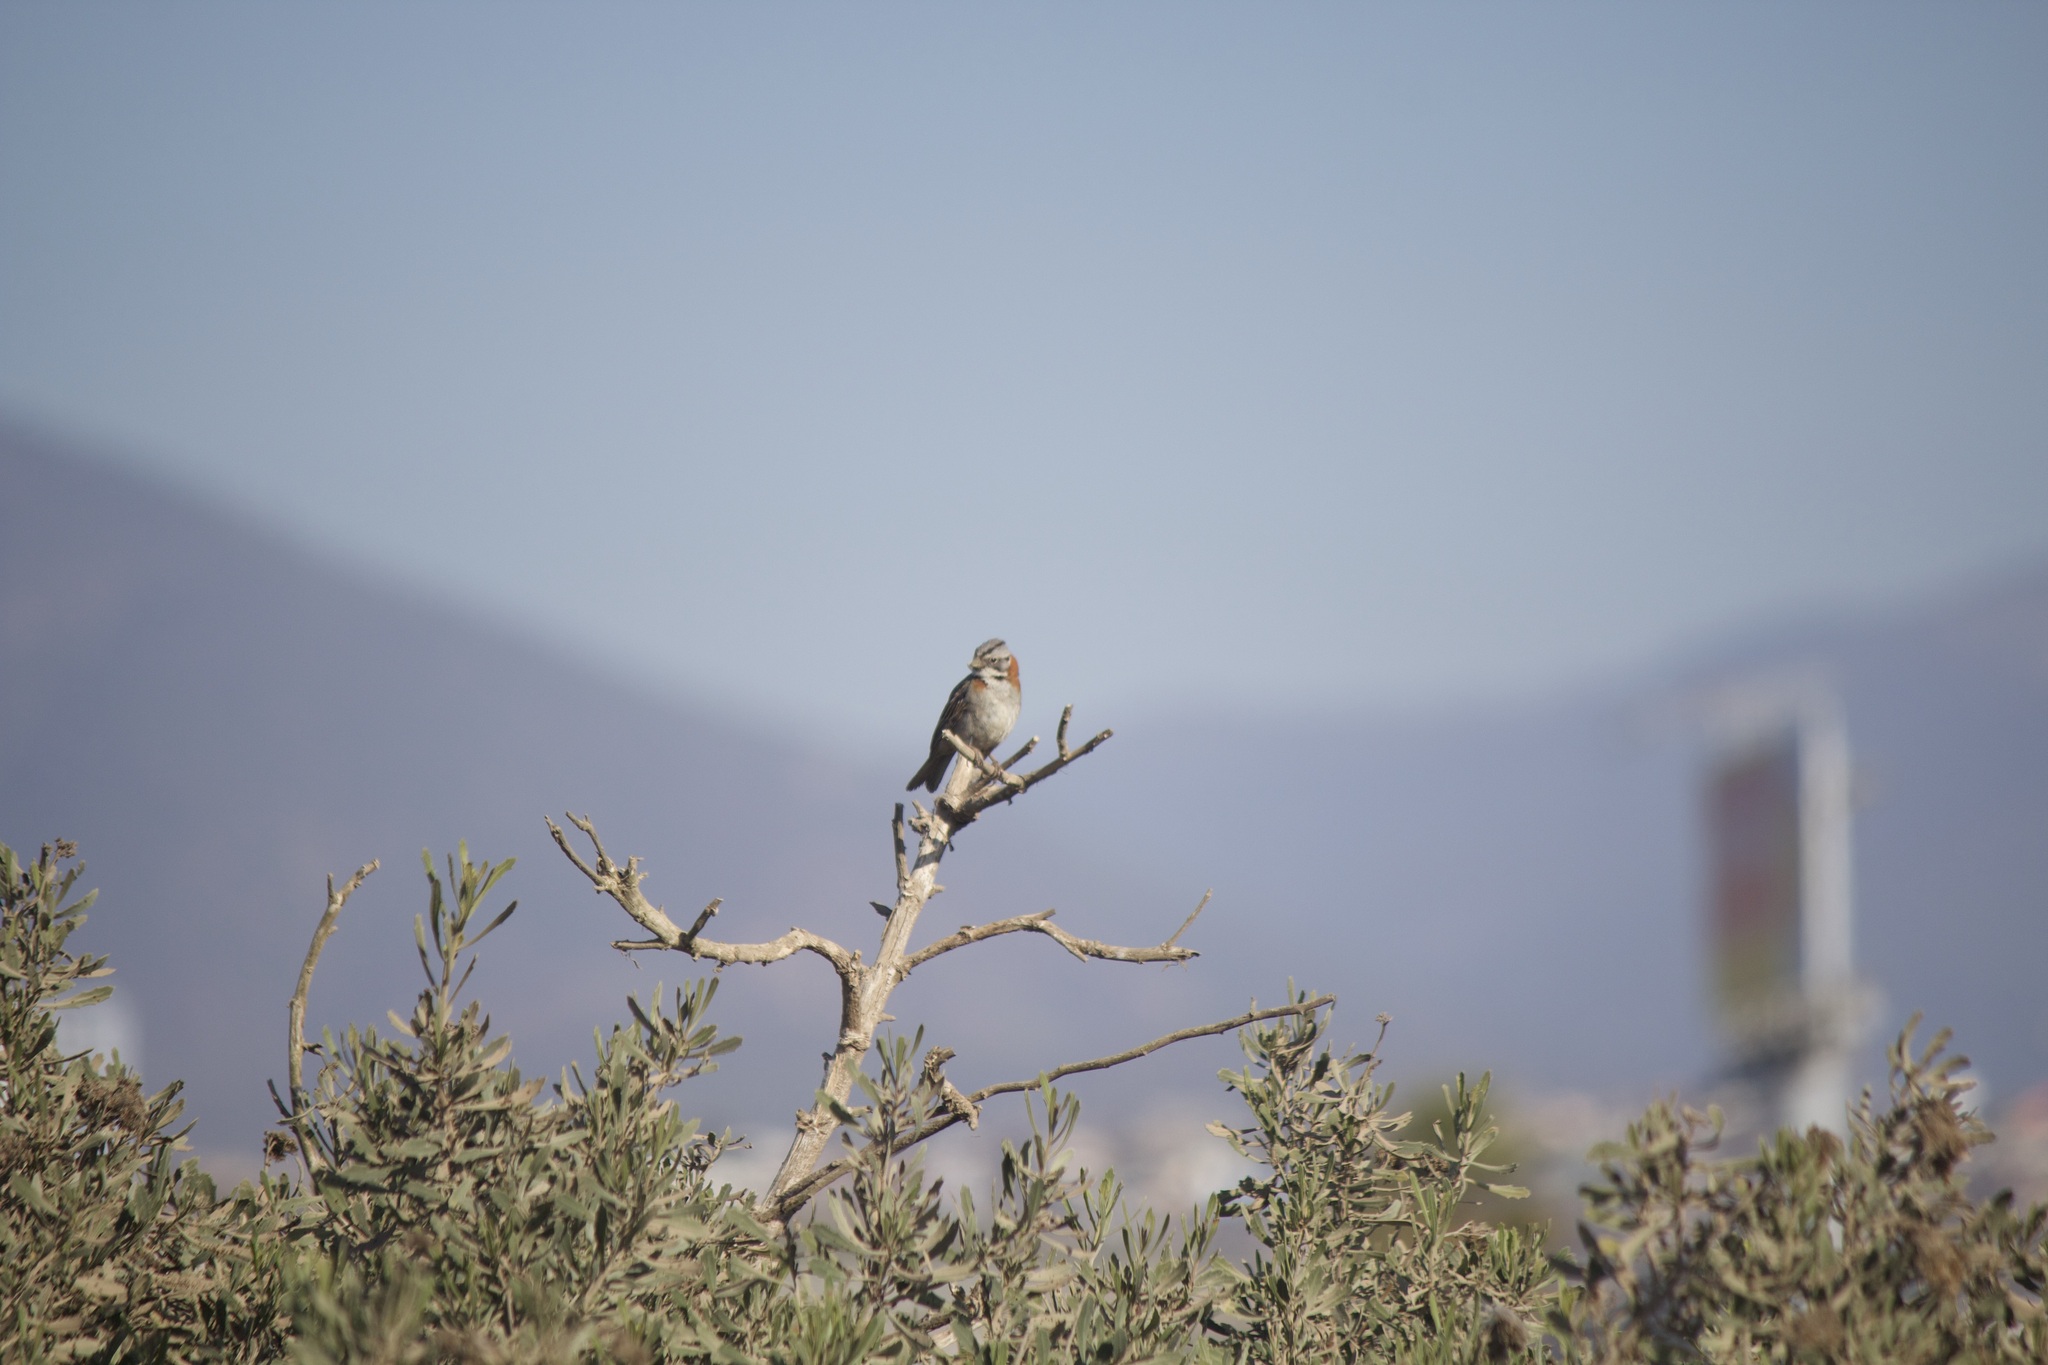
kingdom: Animalia
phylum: Chordata
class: Aves
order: Passeriformes
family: Passerellidae
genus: Zonotrichia
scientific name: Zonotrichia capensis
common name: Rufous-collared sparrow
